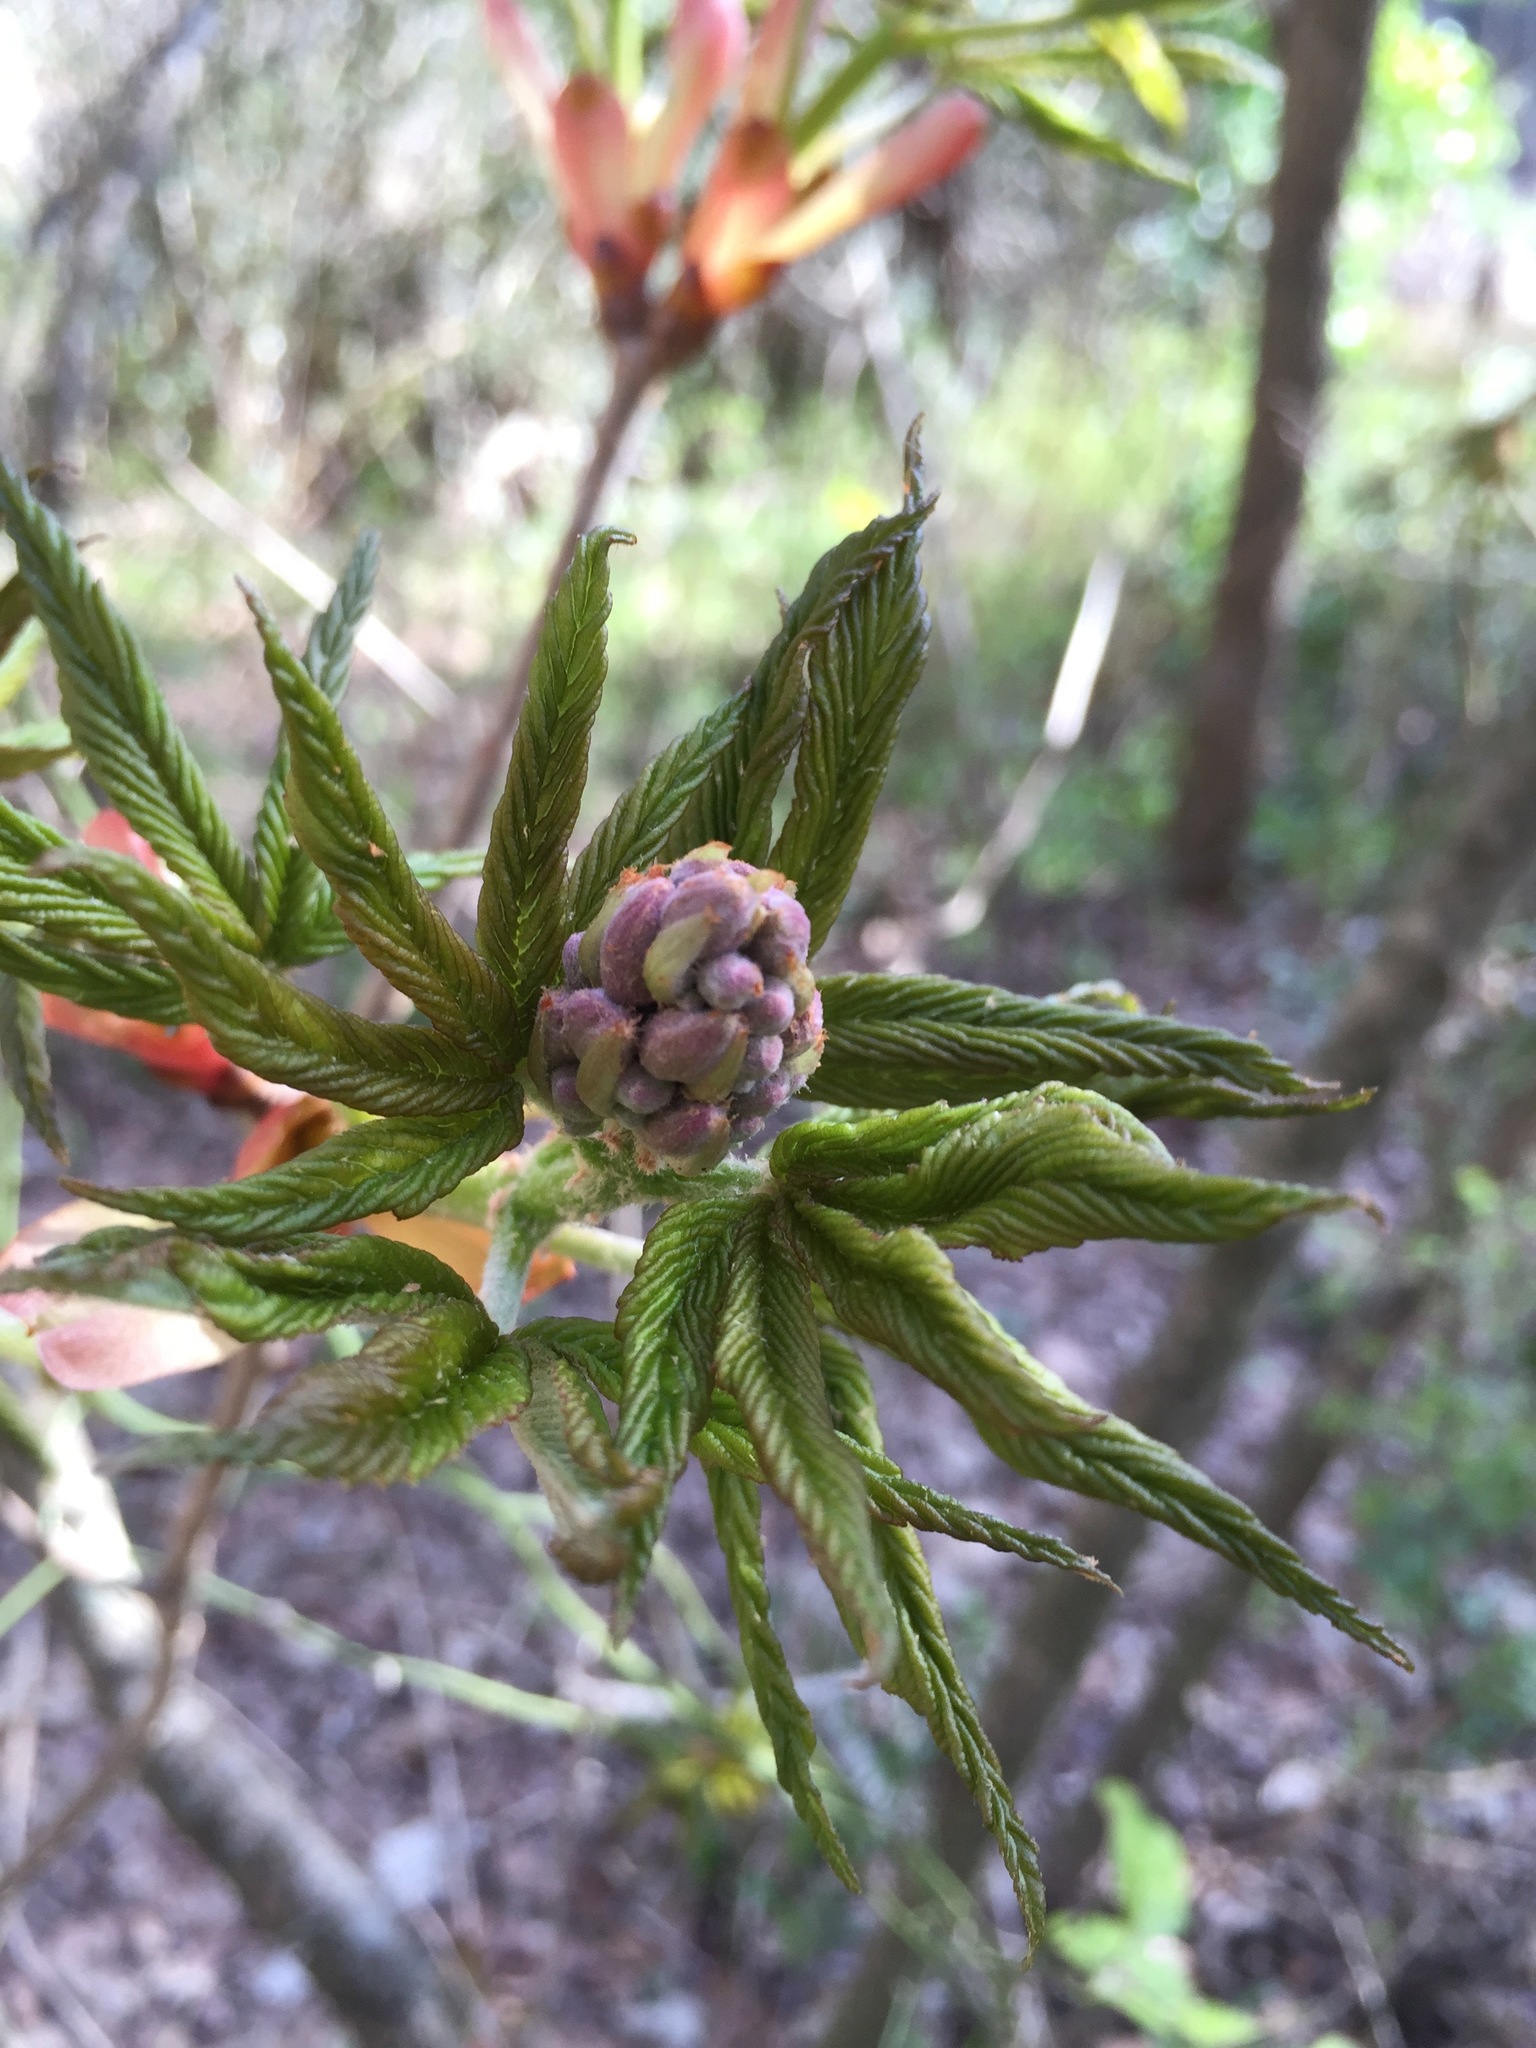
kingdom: Plantae
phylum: Tracheophyta
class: Magnoliopsida
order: Sapindales
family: Sapindaceae
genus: Aesculus
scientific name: Aesculus pavia
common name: Red buckeye
